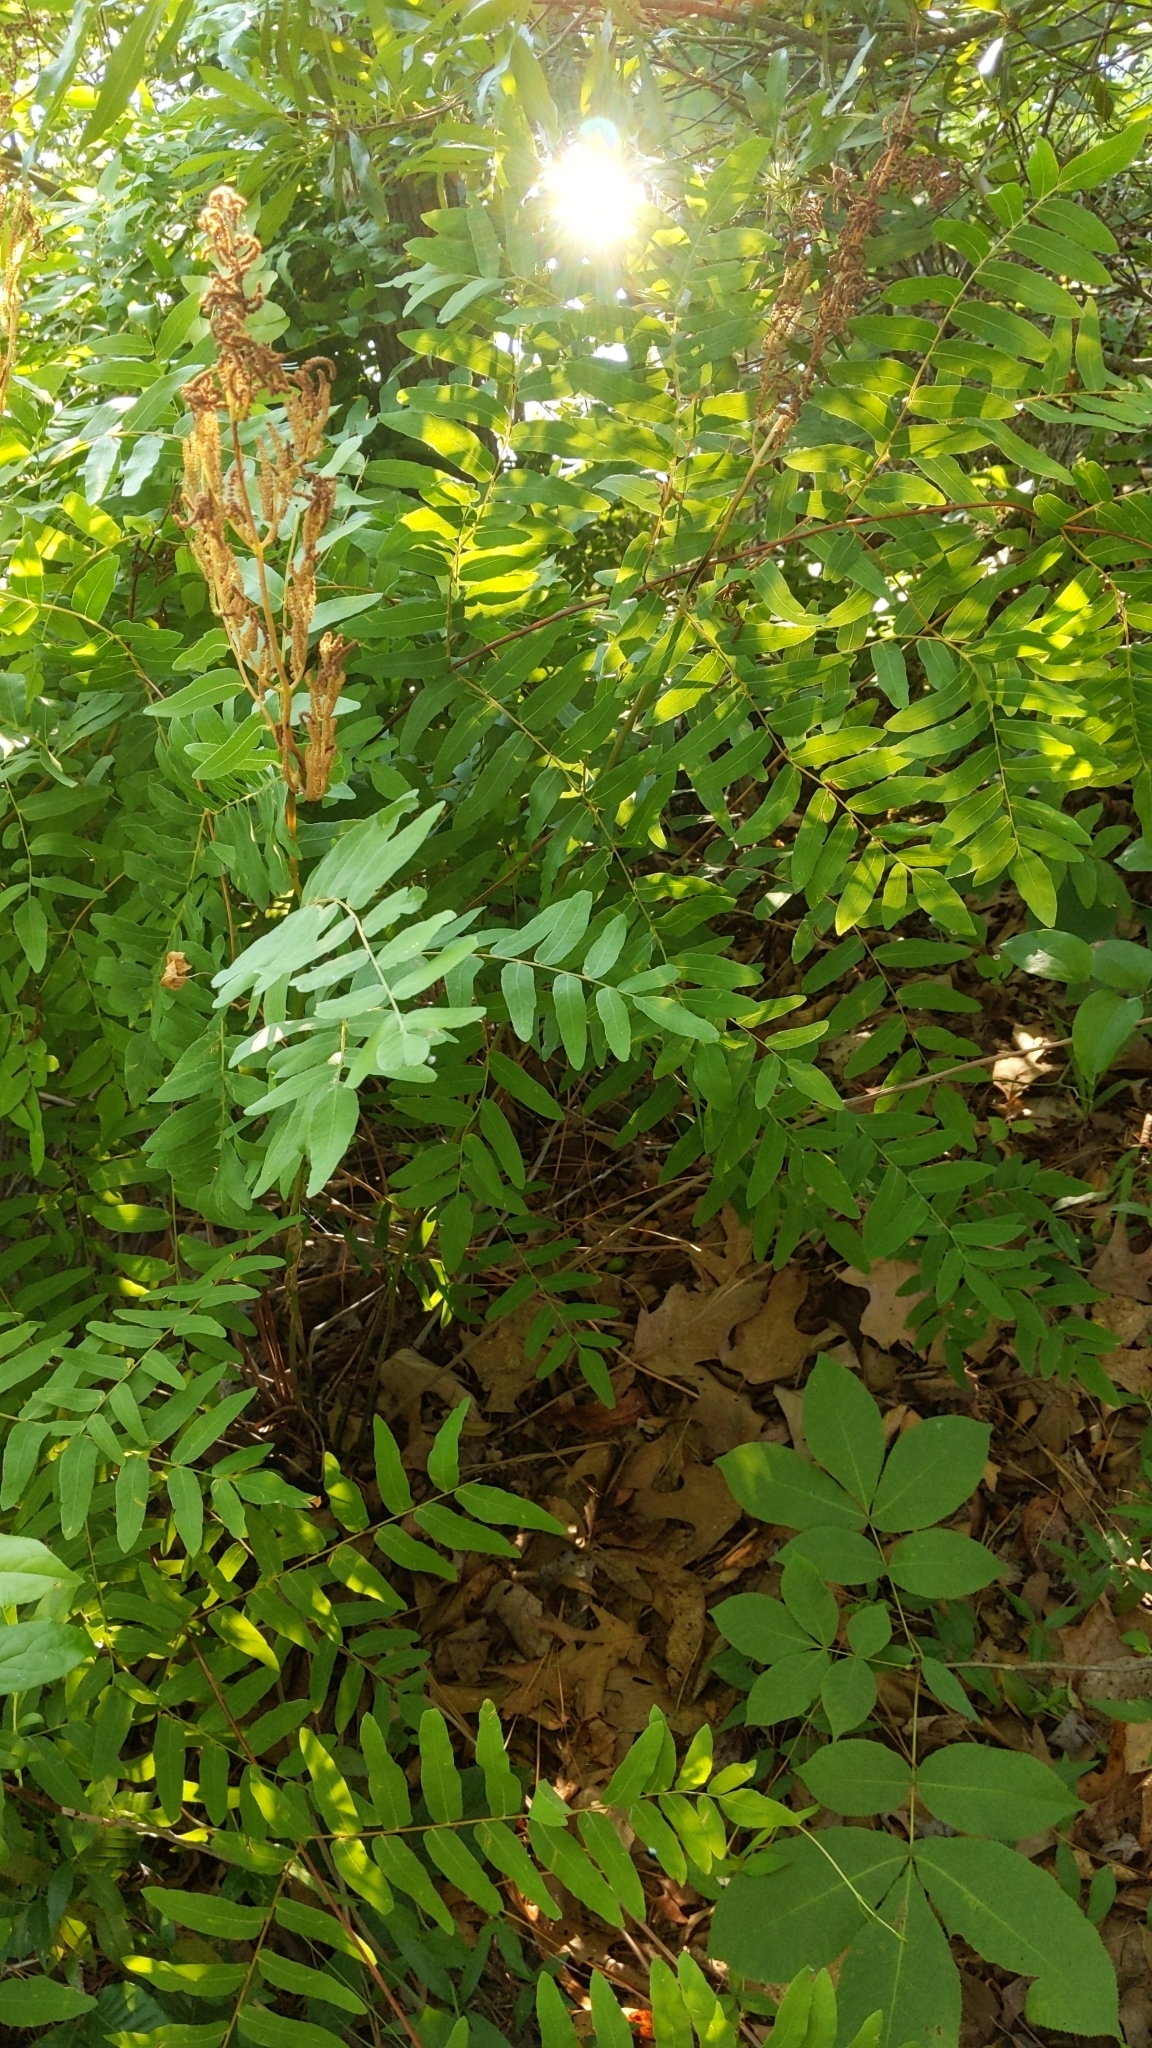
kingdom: Plantae
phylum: Tracheophyta
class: Polypodiopsida
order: Osmundales
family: Osmundaceae
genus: Osmunda
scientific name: Osmunda spectabilis
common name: American royal fern
